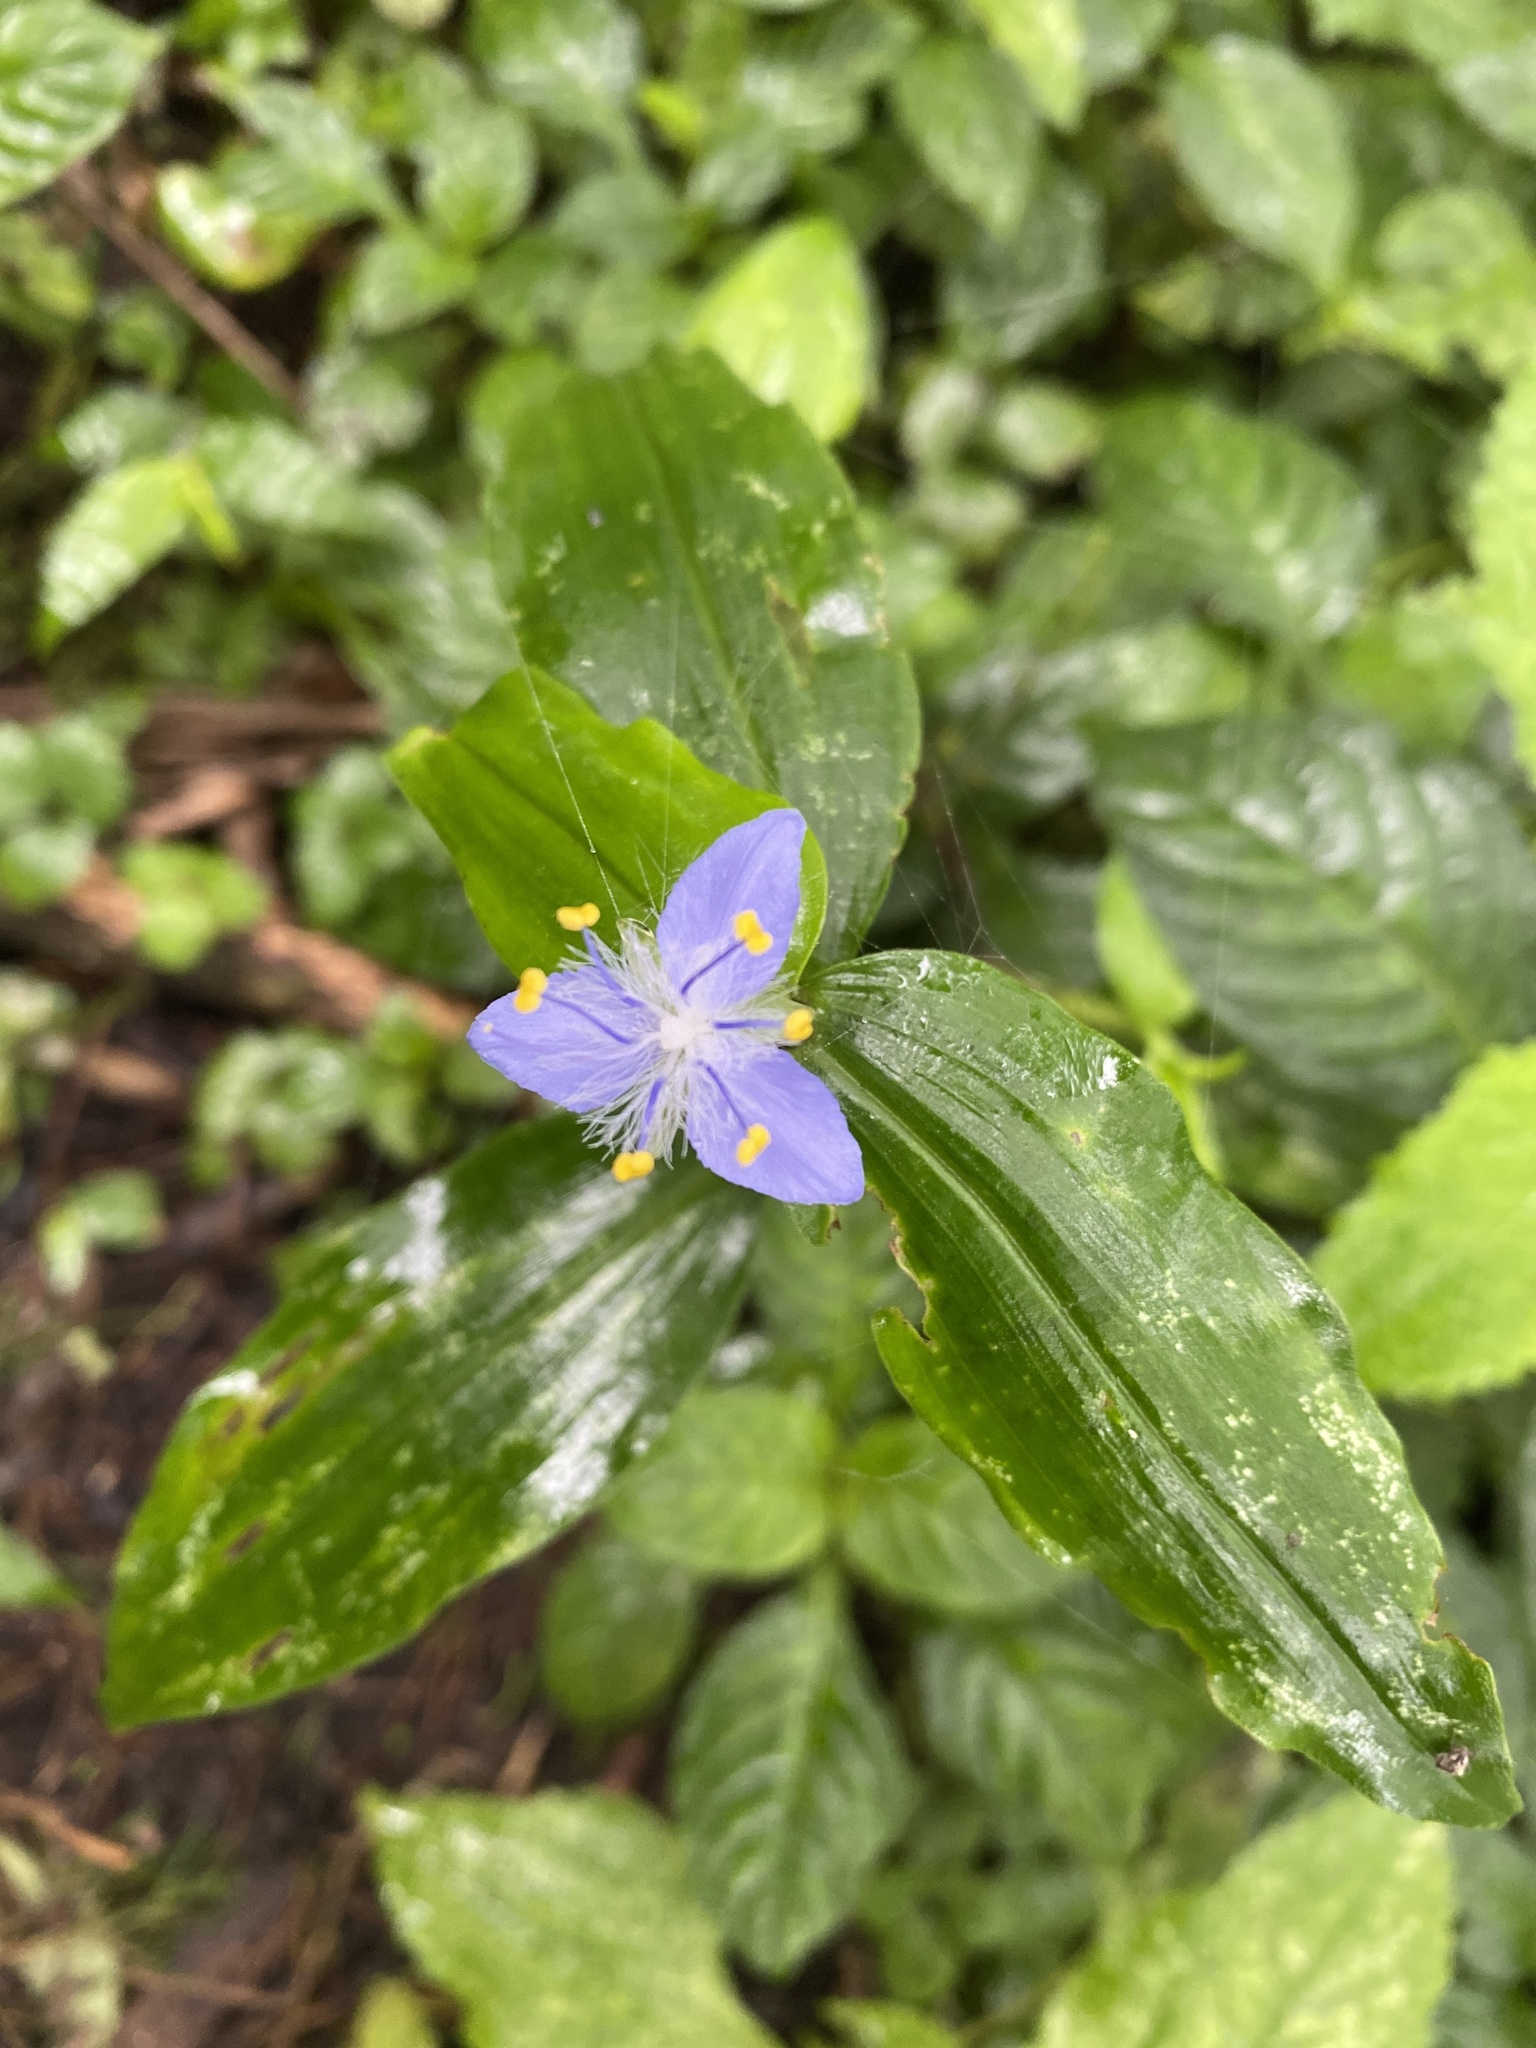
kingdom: Plantae
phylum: Tracheophyta
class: Liliopsida
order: Commelinales
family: Commelinaceae
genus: Elasis
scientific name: Elasis guatemalensis
